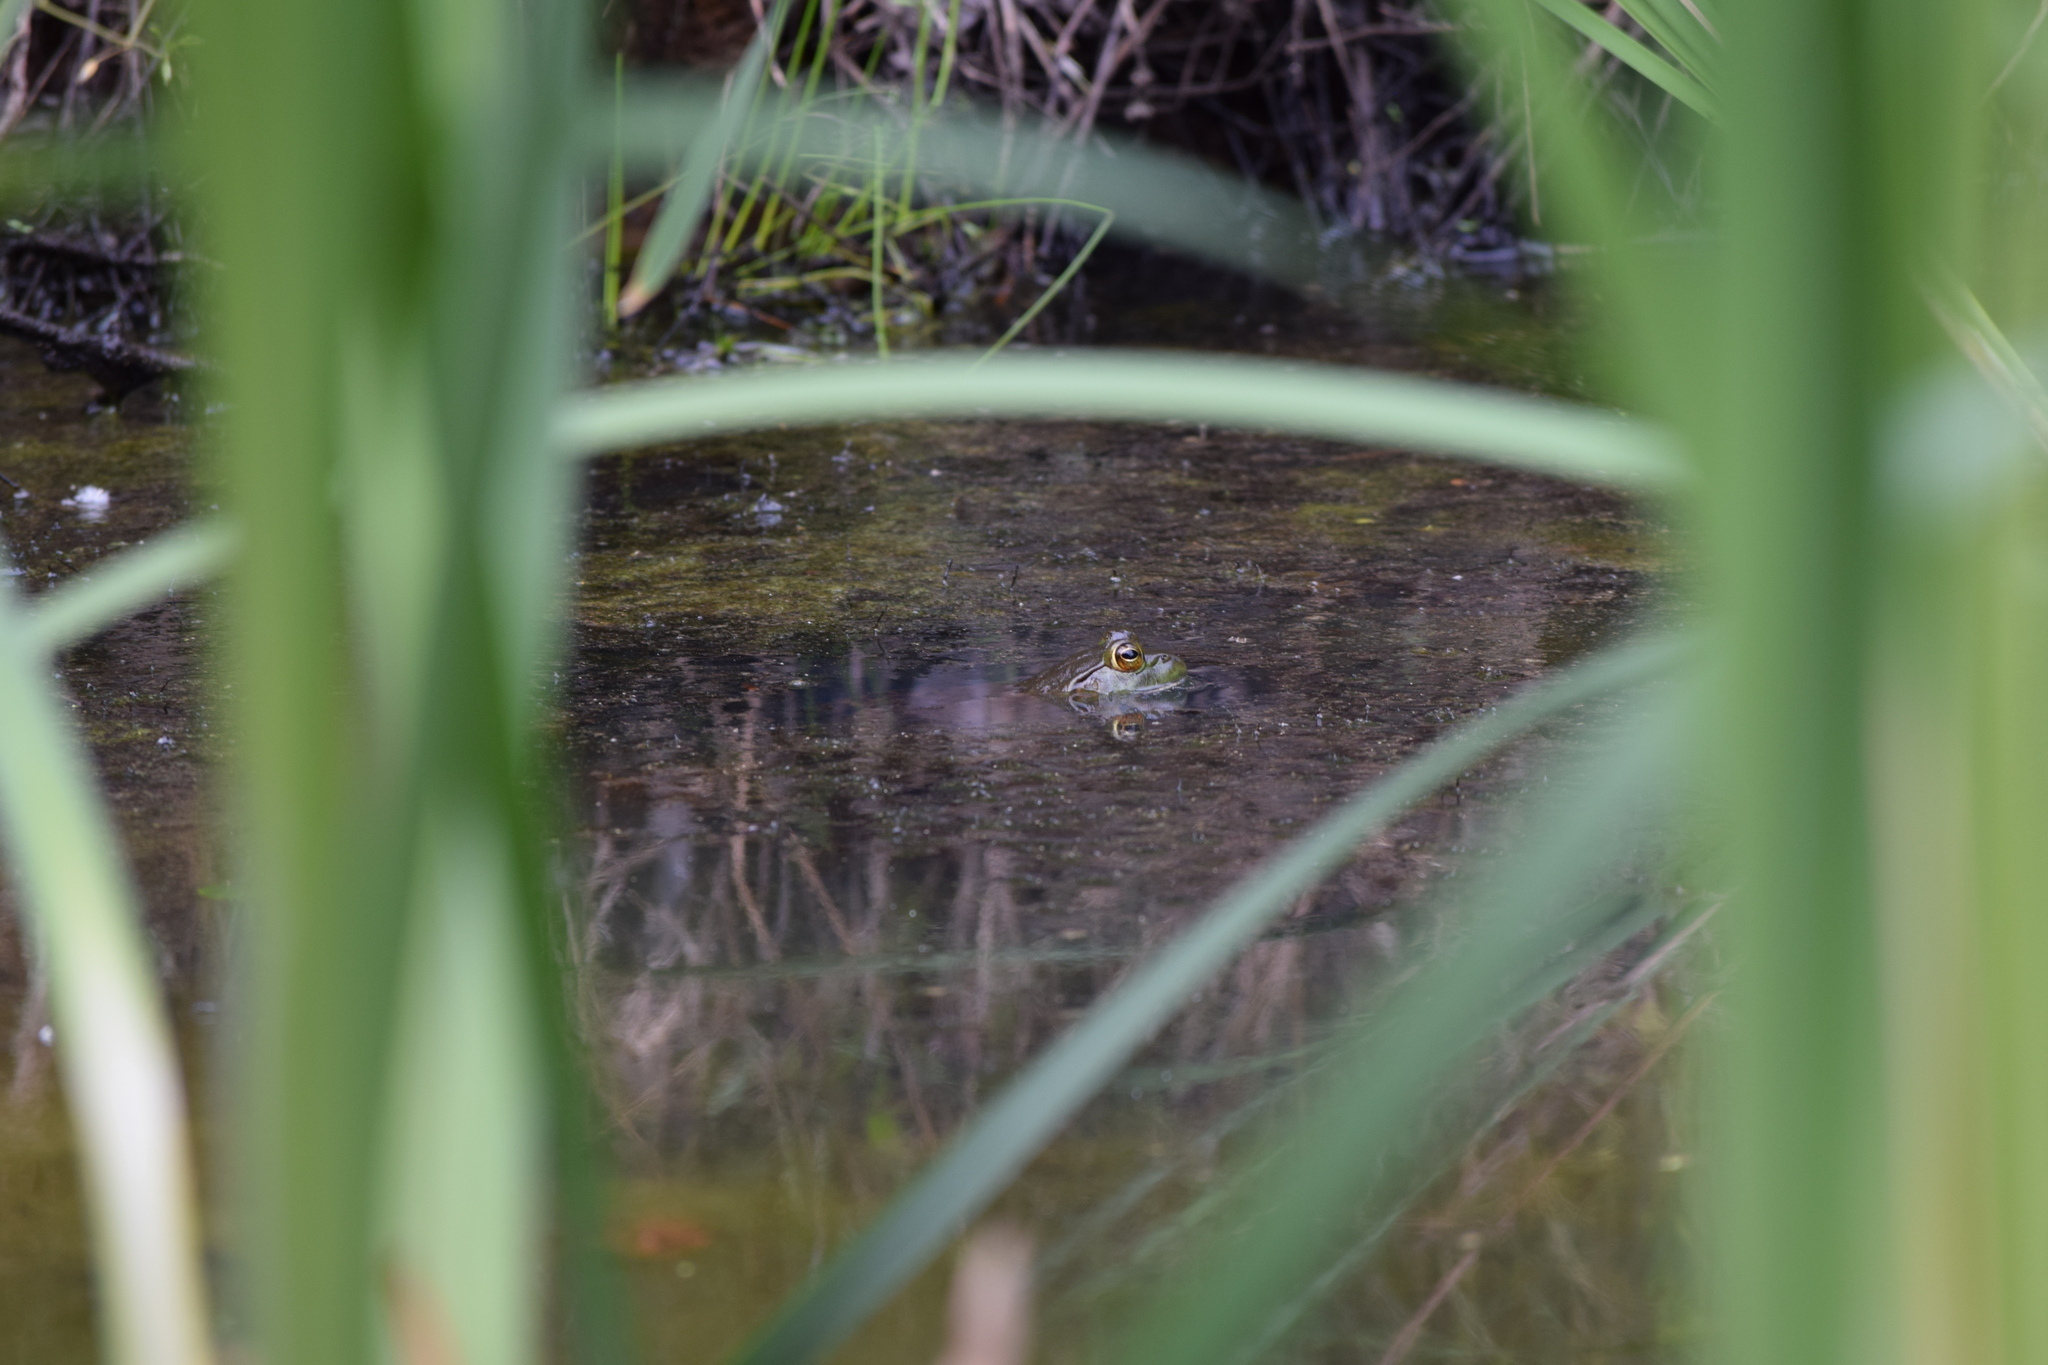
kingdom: Animalia
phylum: Chordata
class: Amphibia
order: Anura
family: Ranidae
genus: Lithobates
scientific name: Lithobates catesbeianus
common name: American bullfrog
